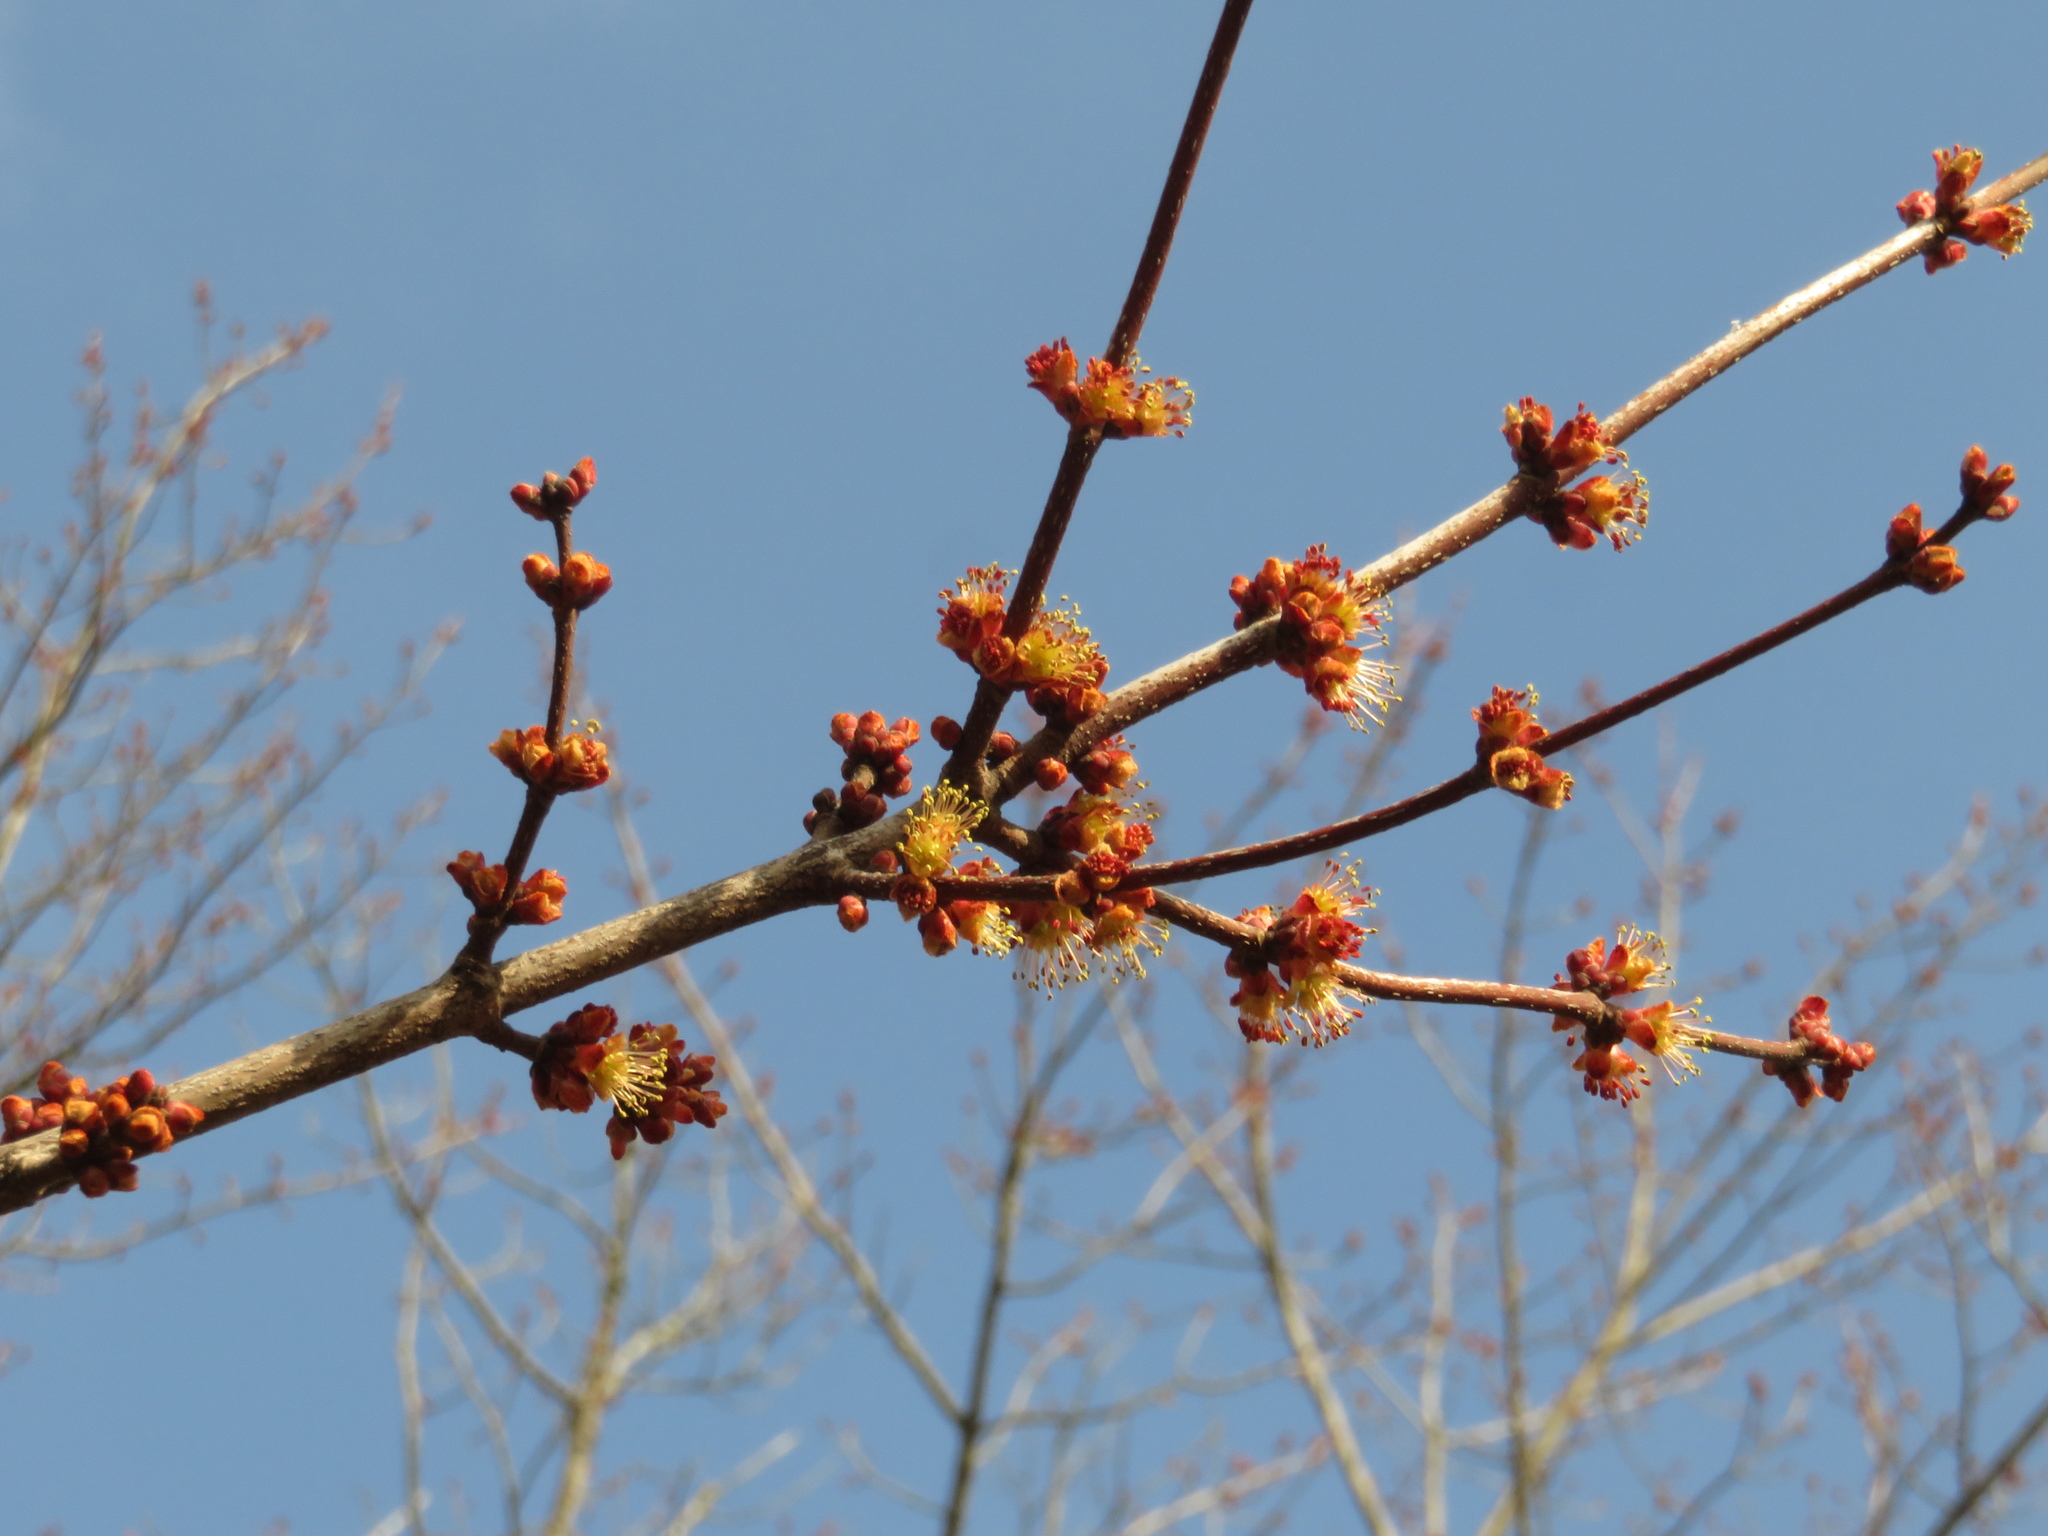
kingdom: Plantae
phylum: Tracheophyta
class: Magnoliopsida
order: Sapindales
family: Sapindaceae
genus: Acer
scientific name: Acer rubrum
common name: Red maple
